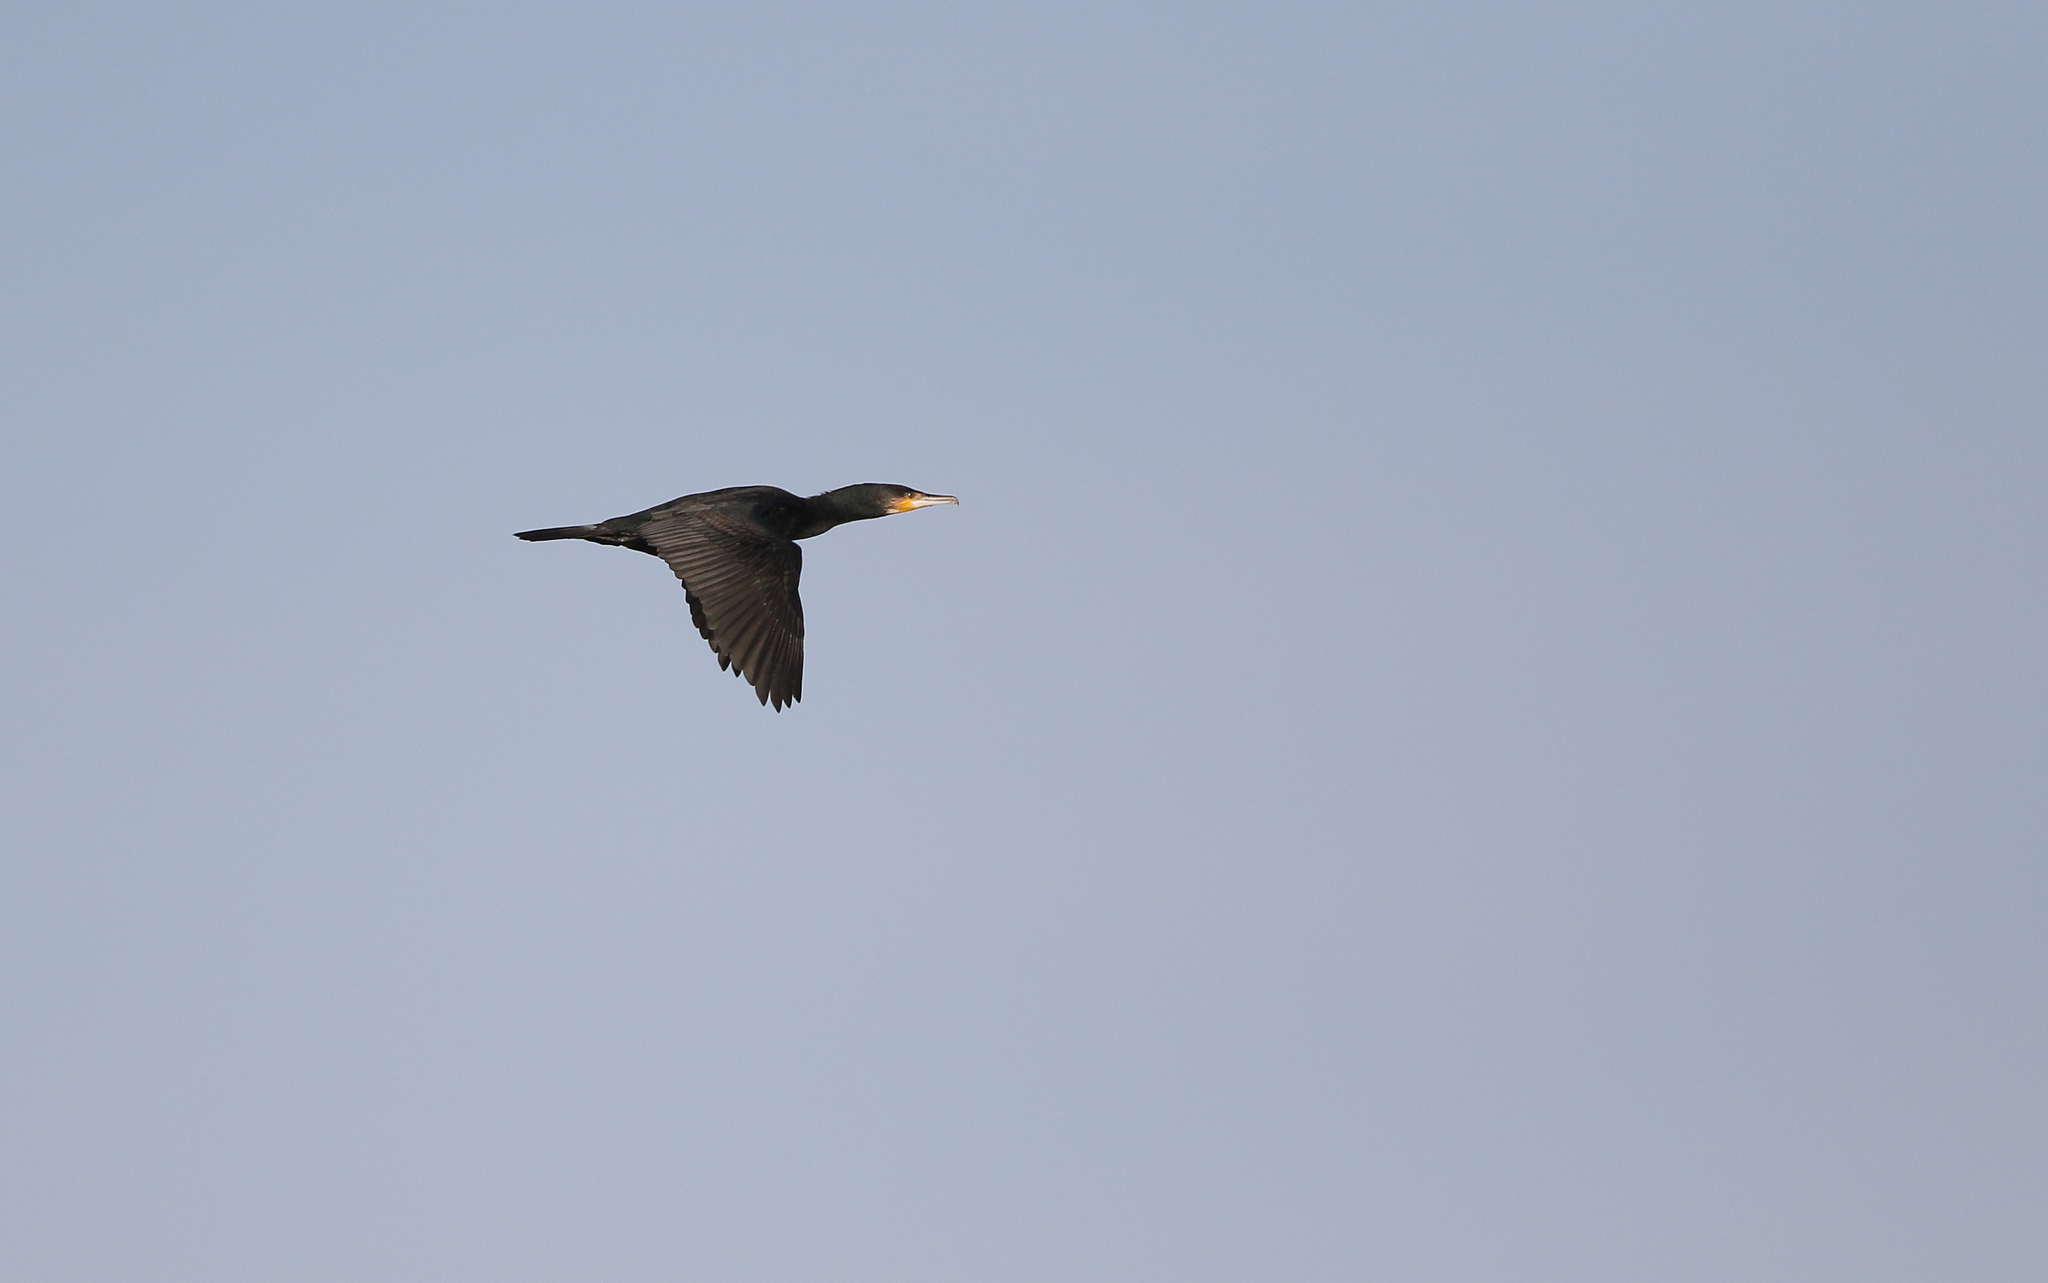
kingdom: Animalia
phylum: Chordata
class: Aves
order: Suliformes
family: Phalacrocoracidae
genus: Phalacrocorax
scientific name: Phalacrocorax carbo
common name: Great cormorant
